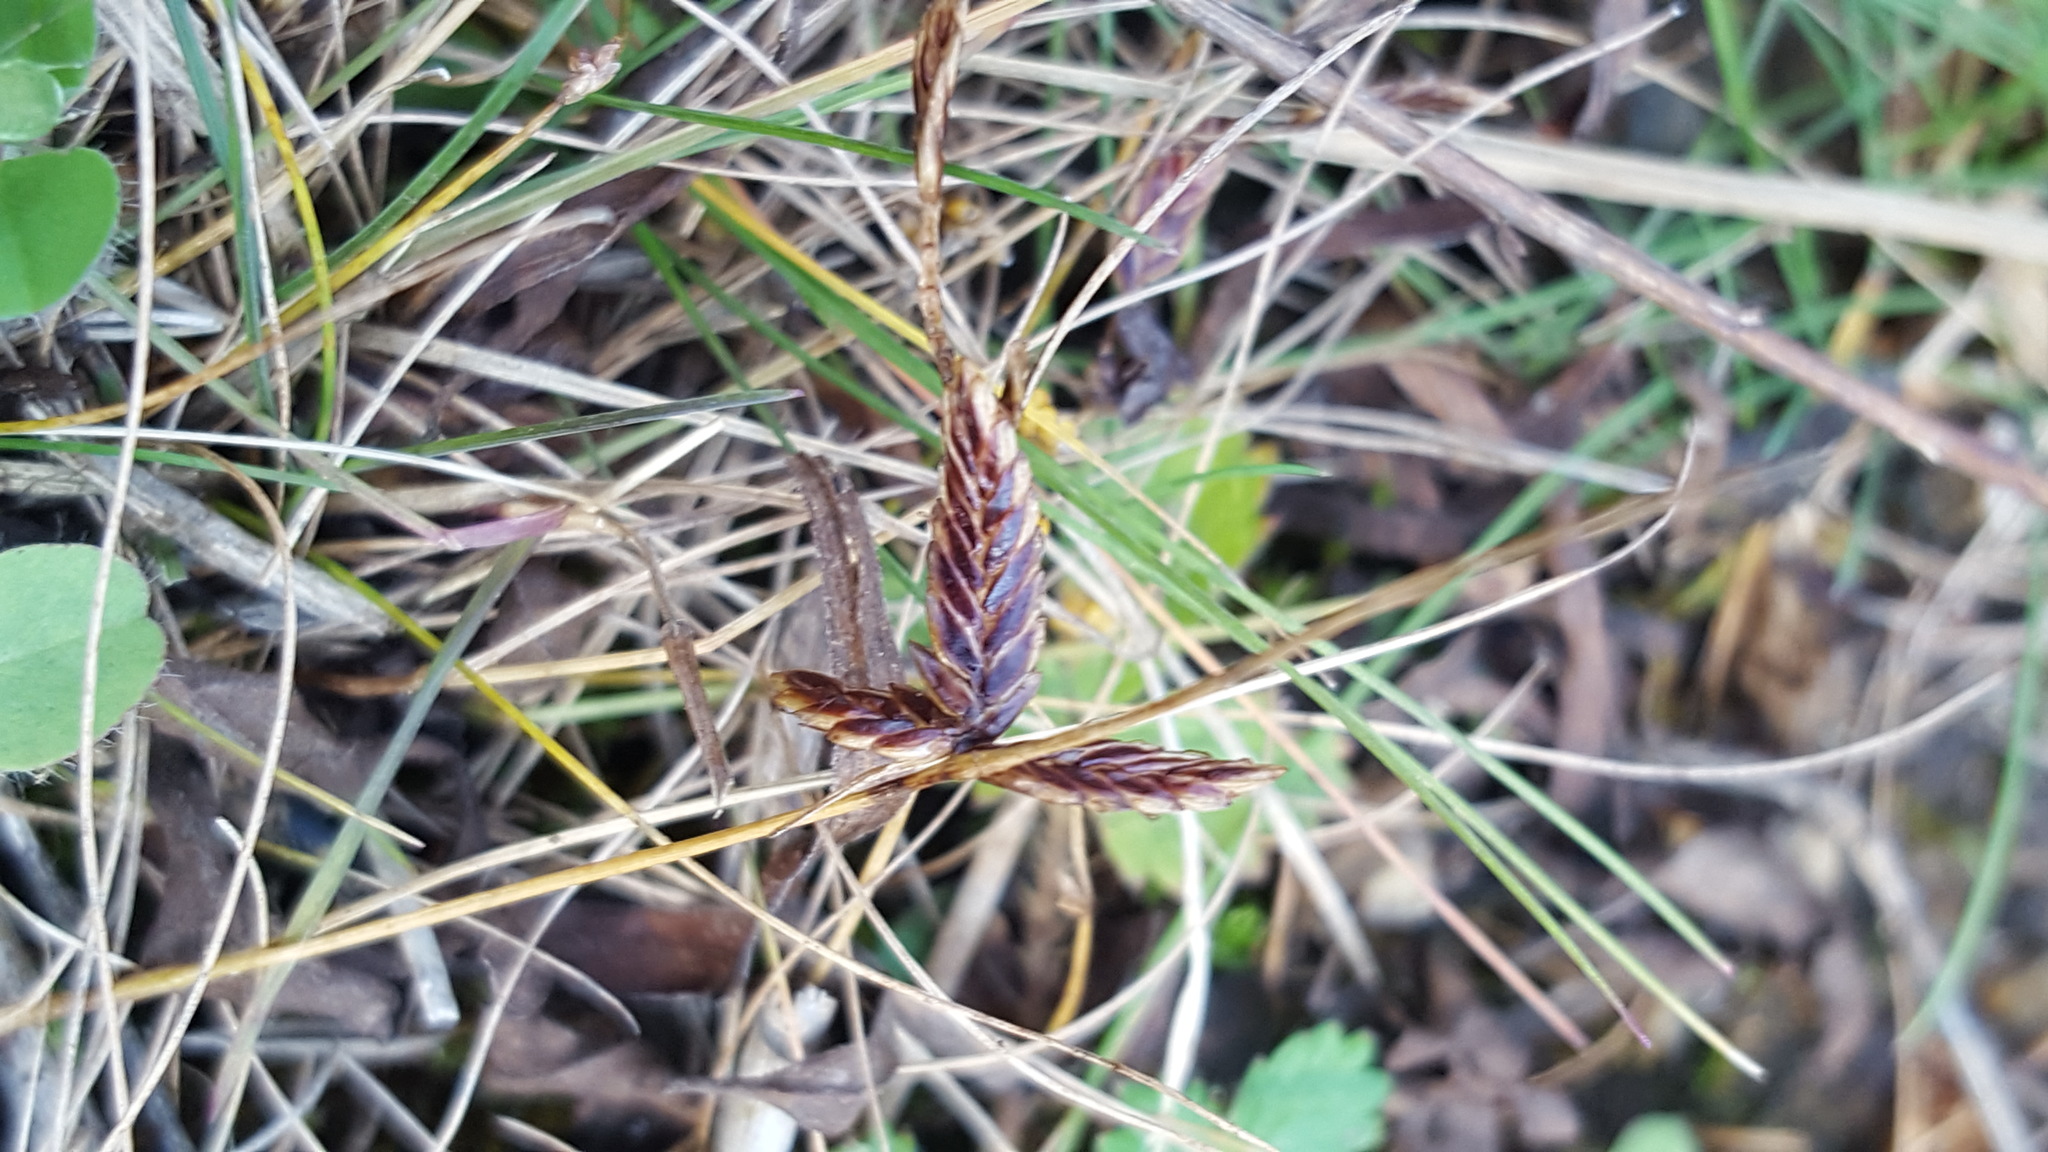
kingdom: Plantae
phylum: Tracheophyta
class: Liliopsida
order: Poales
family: Cyperaceae
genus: Cyperus
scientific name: Cyperus bipartitus
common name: Brook flatsedge
